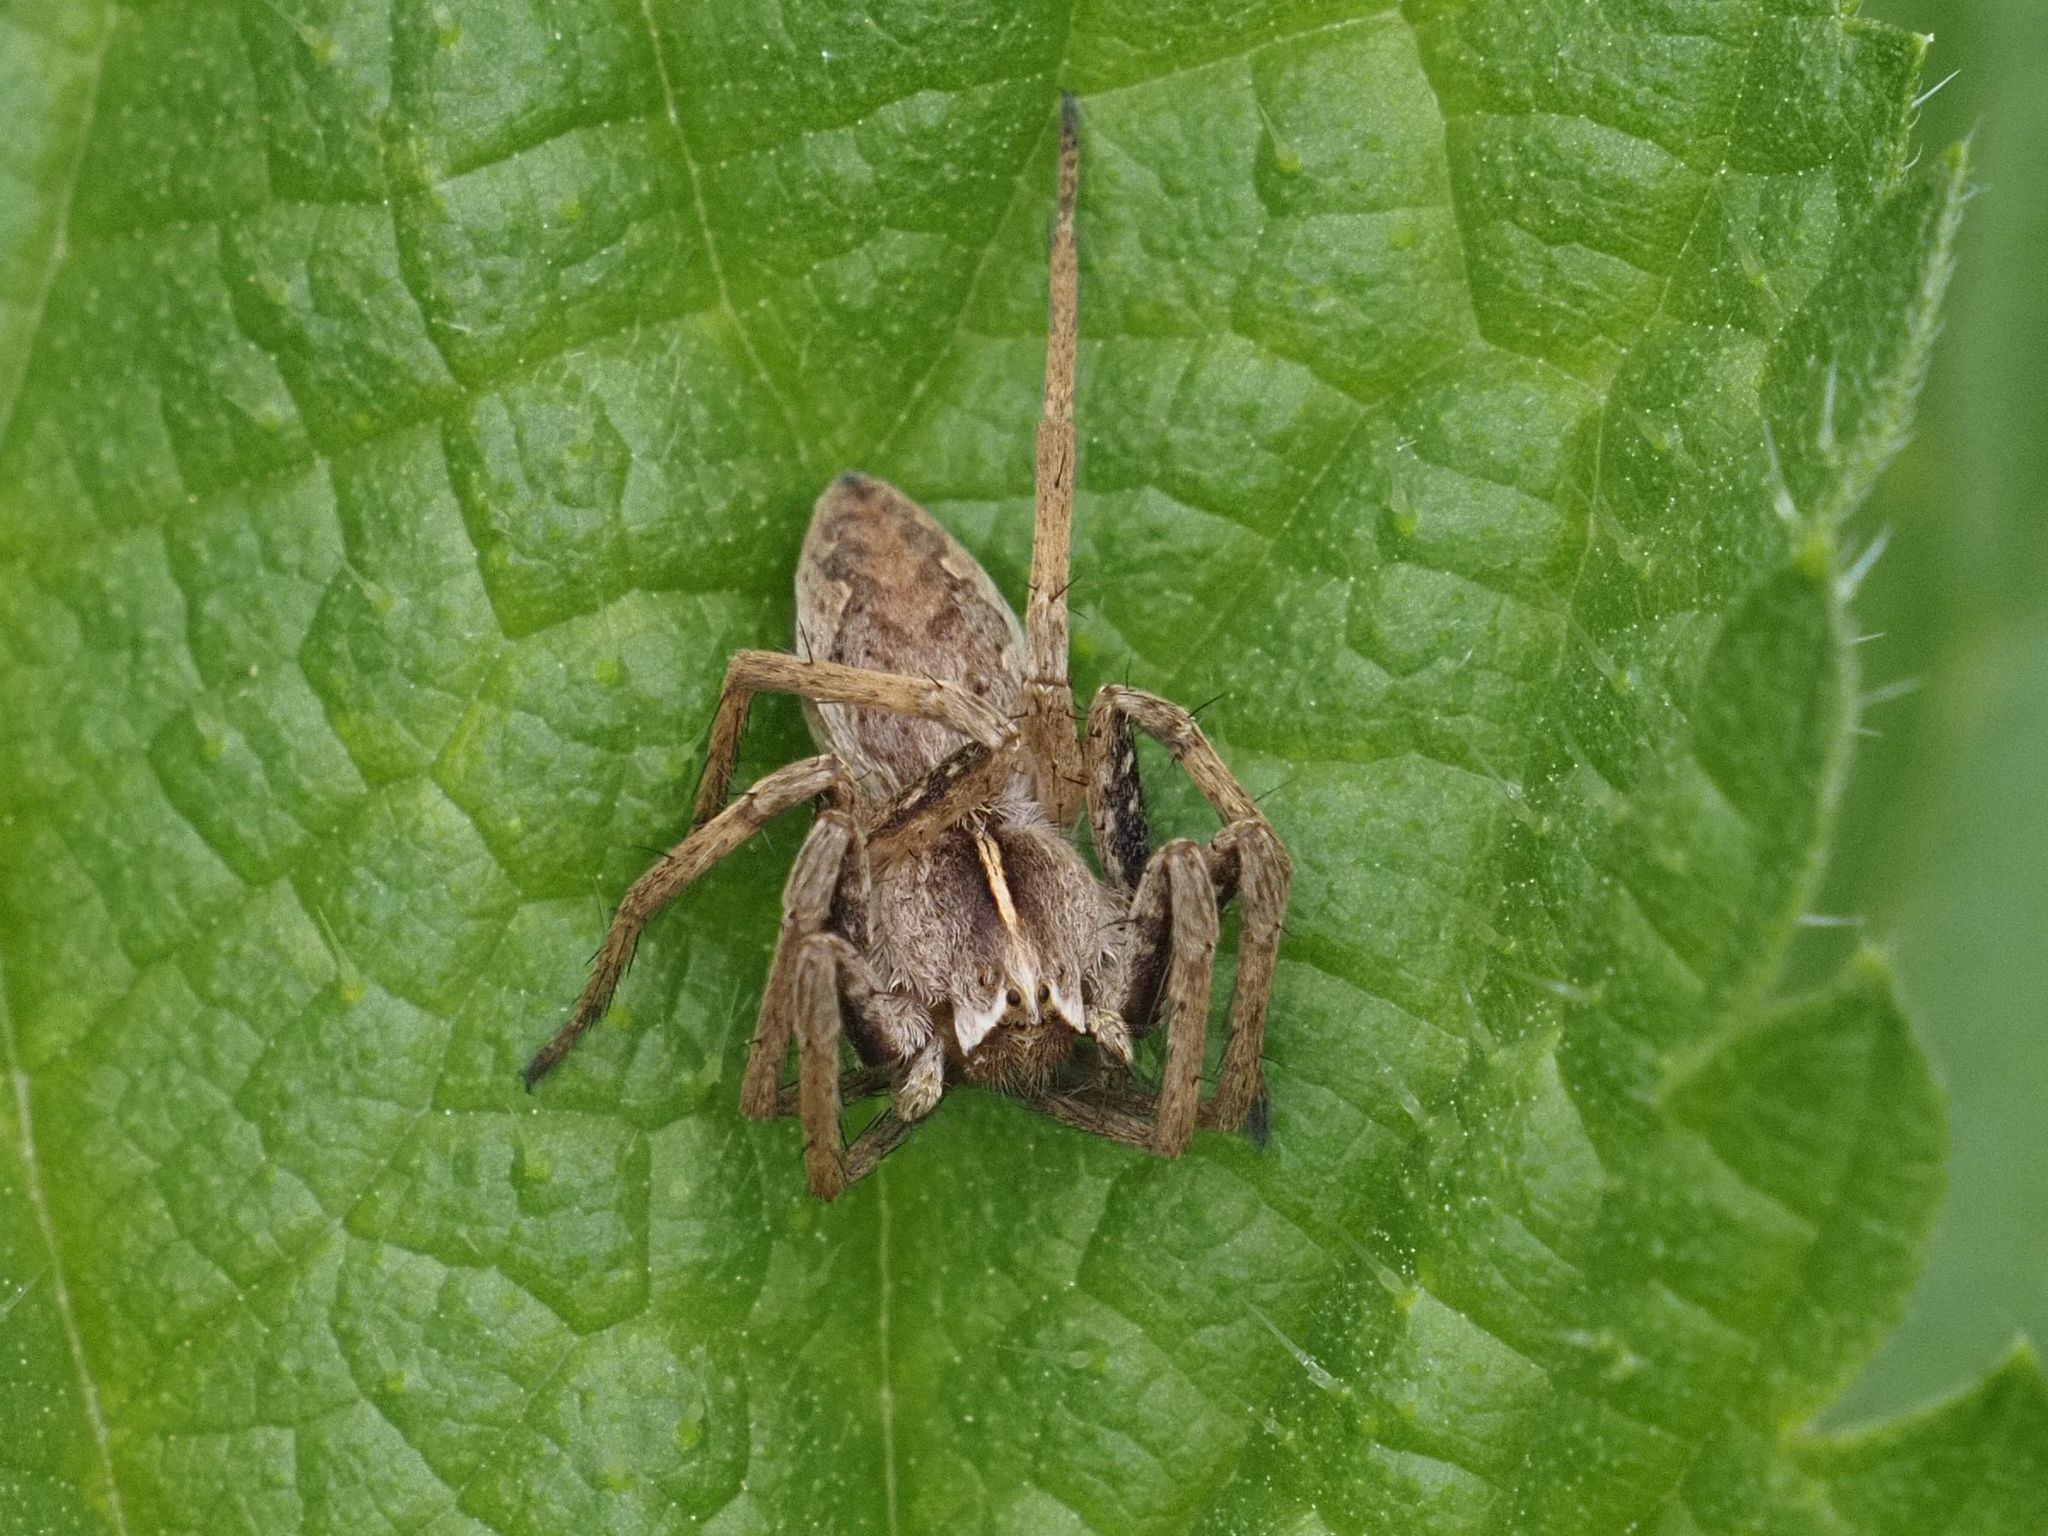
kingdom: Animalia
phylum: Arthropoda
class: Arachnida
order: Araneae
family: Pisauridae
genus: Pisaura
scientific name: Pisaura mirabilis
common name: Tent spider
